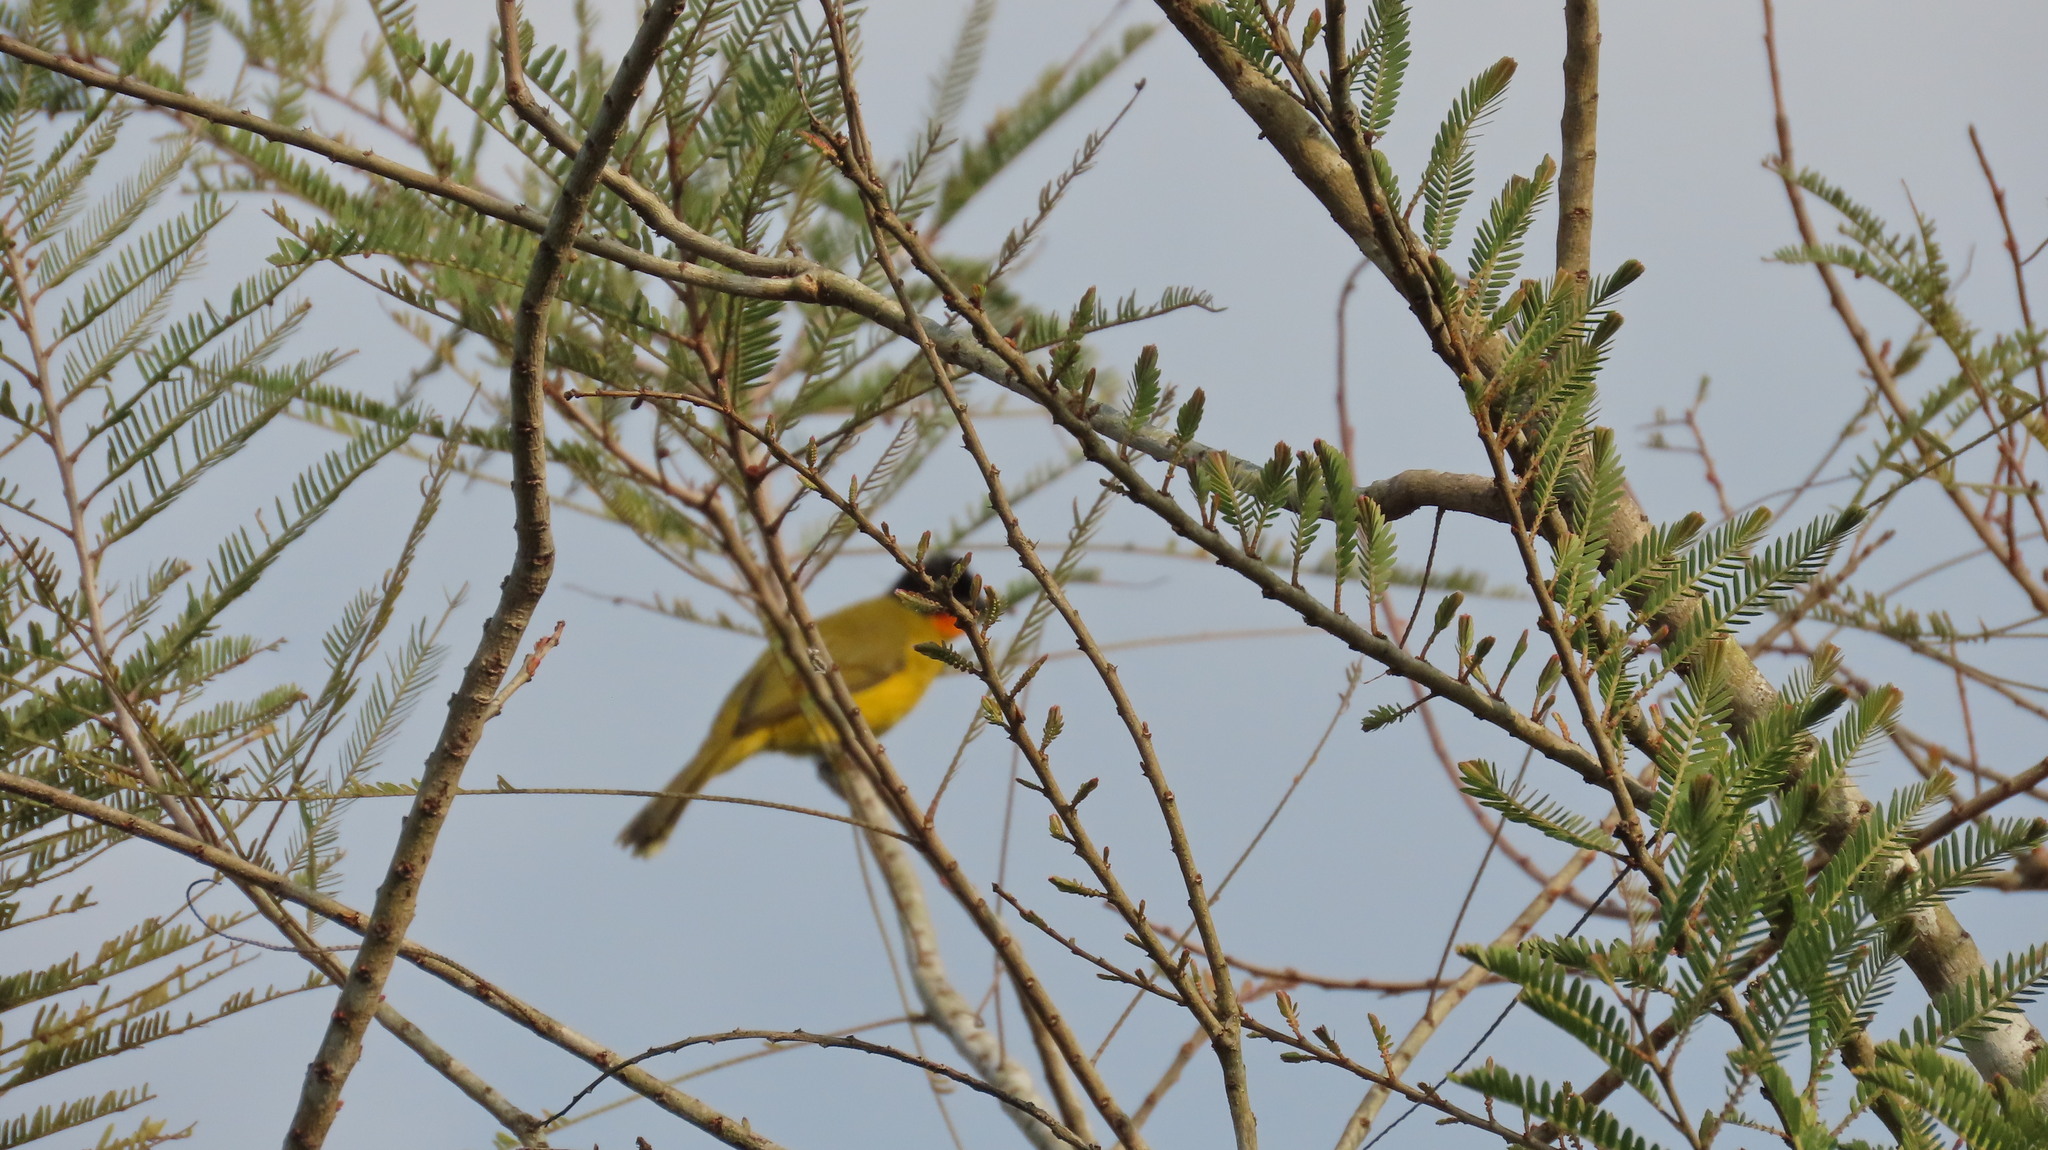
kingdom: Animalia
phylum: Chordata
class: Aves
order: Passeriformes
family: Pycnonotidae
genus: Pycnonotus
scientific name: Pycnonotus gularis
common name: Flame-throated bulbul
